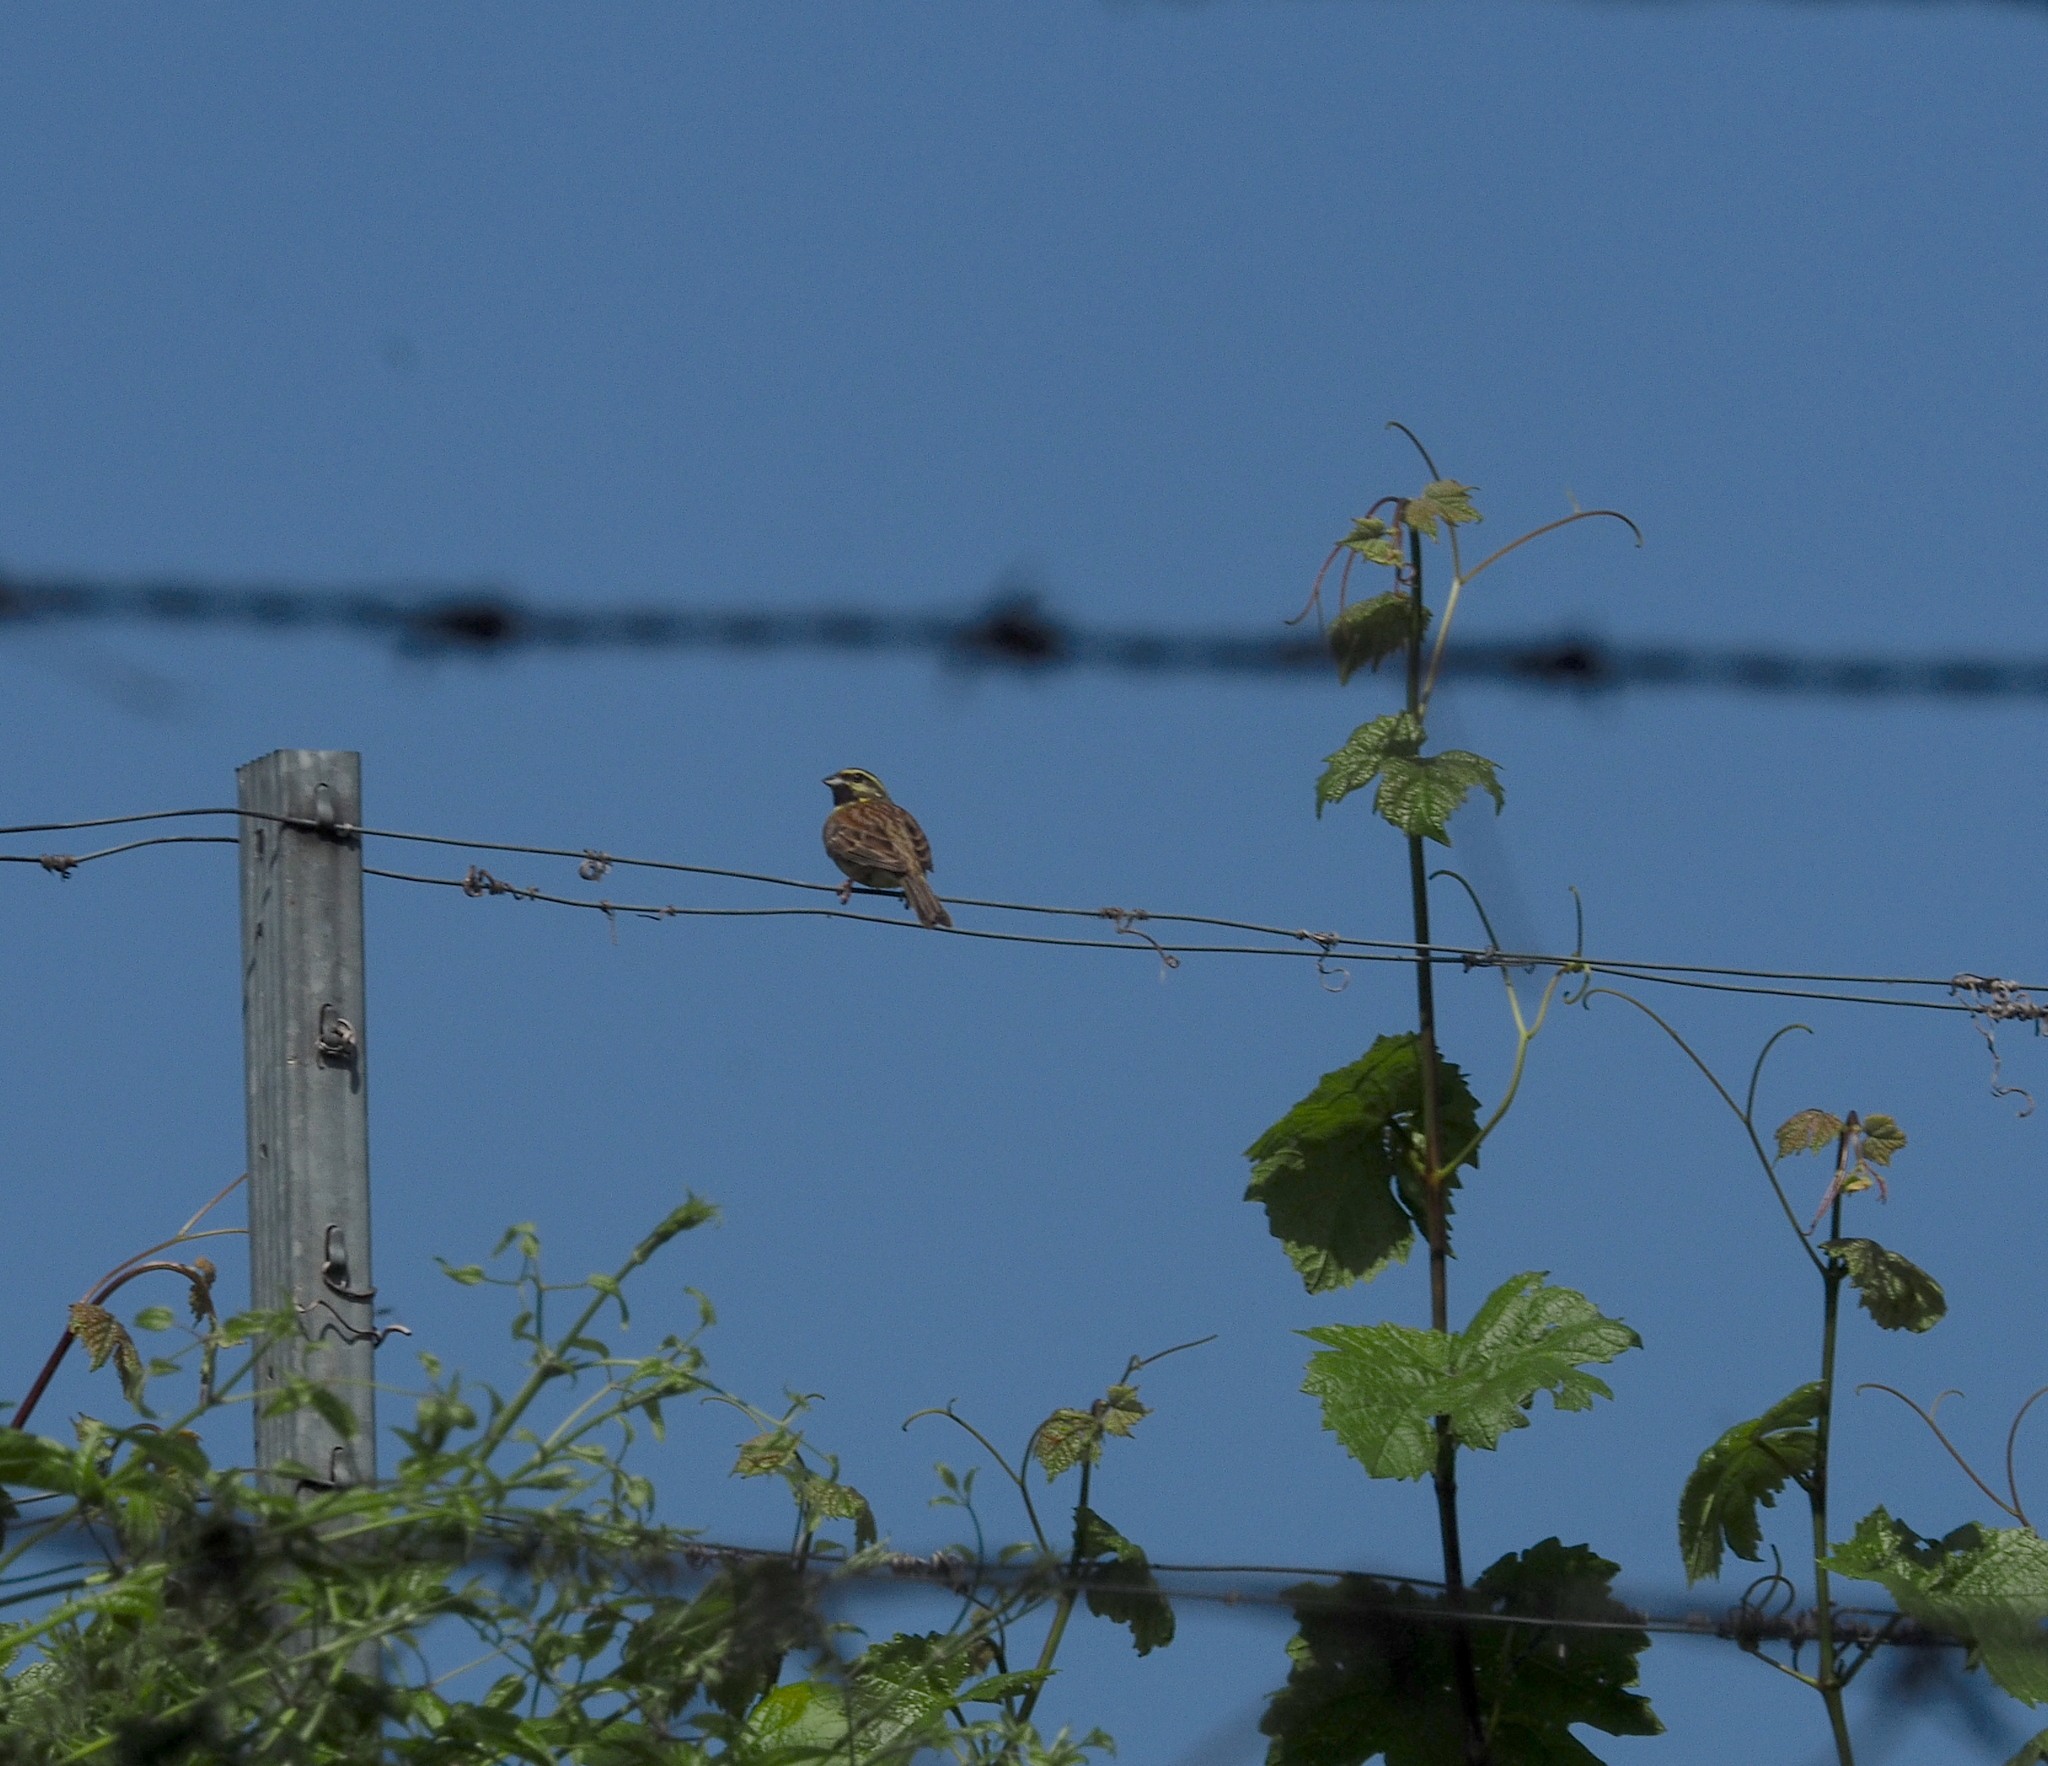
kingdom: Animalia
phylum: Chordata
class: Aves
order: Passeriformes
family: Emberizidae
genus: Emberiza
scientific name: Emberiza cirlus
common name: Cirl bunting
